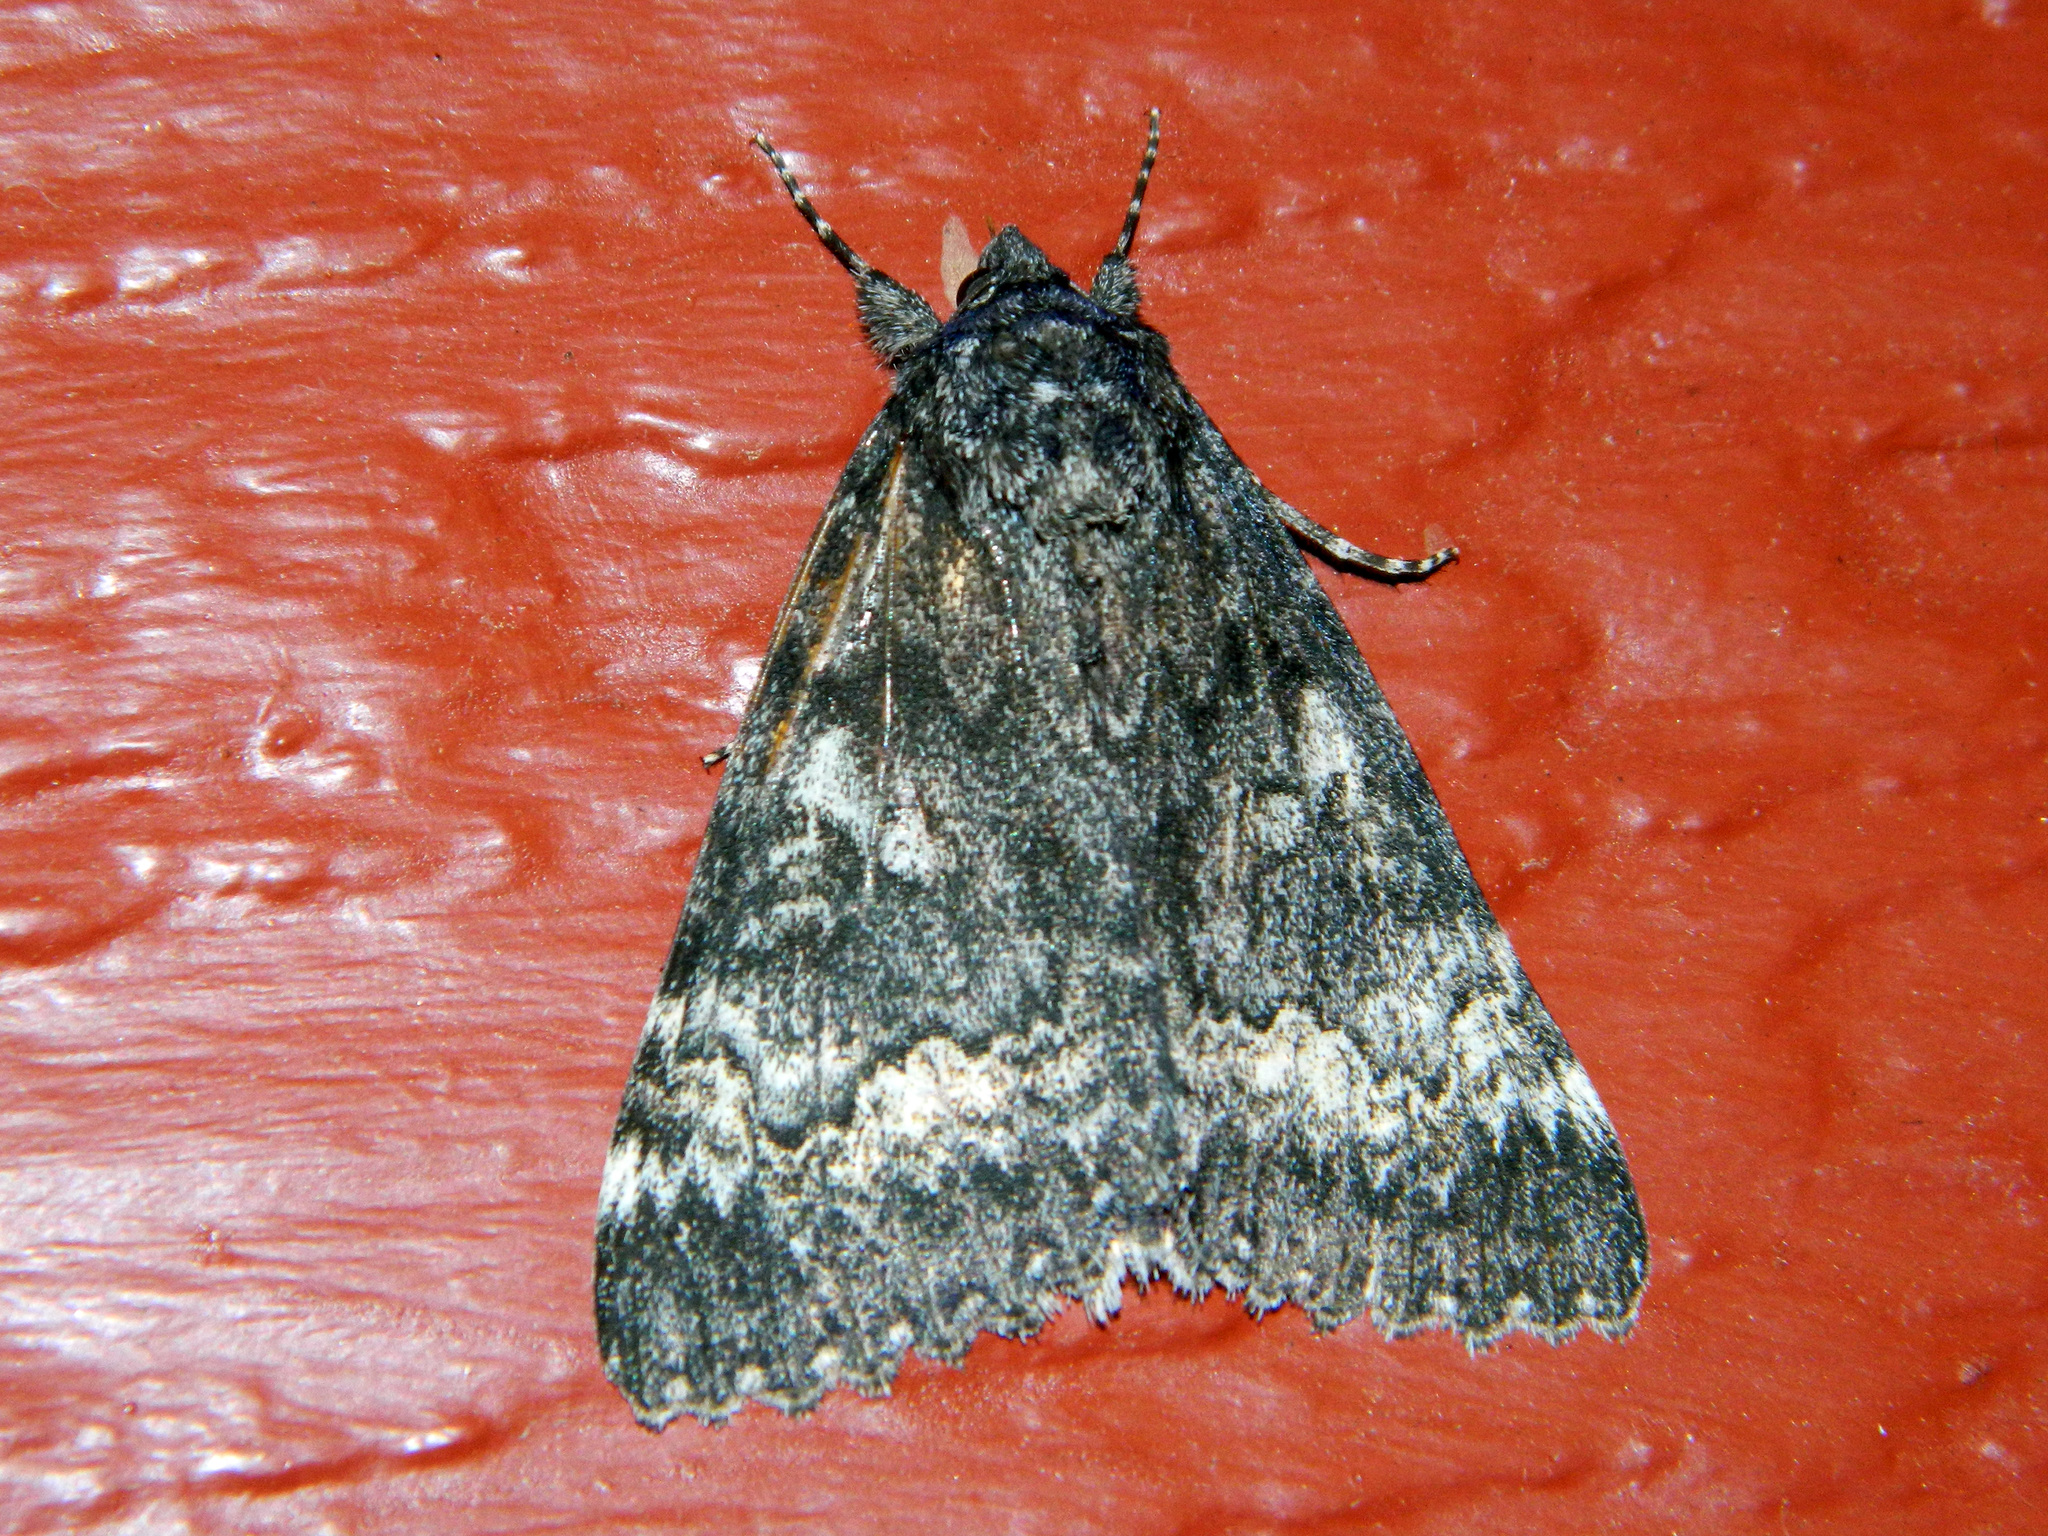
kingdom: Animalia
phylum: Arthropoda
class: Insecta
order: Lepidoptera
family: Erebidae
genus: Catocala
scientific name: Catocala briseis
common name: Briseis underwing
